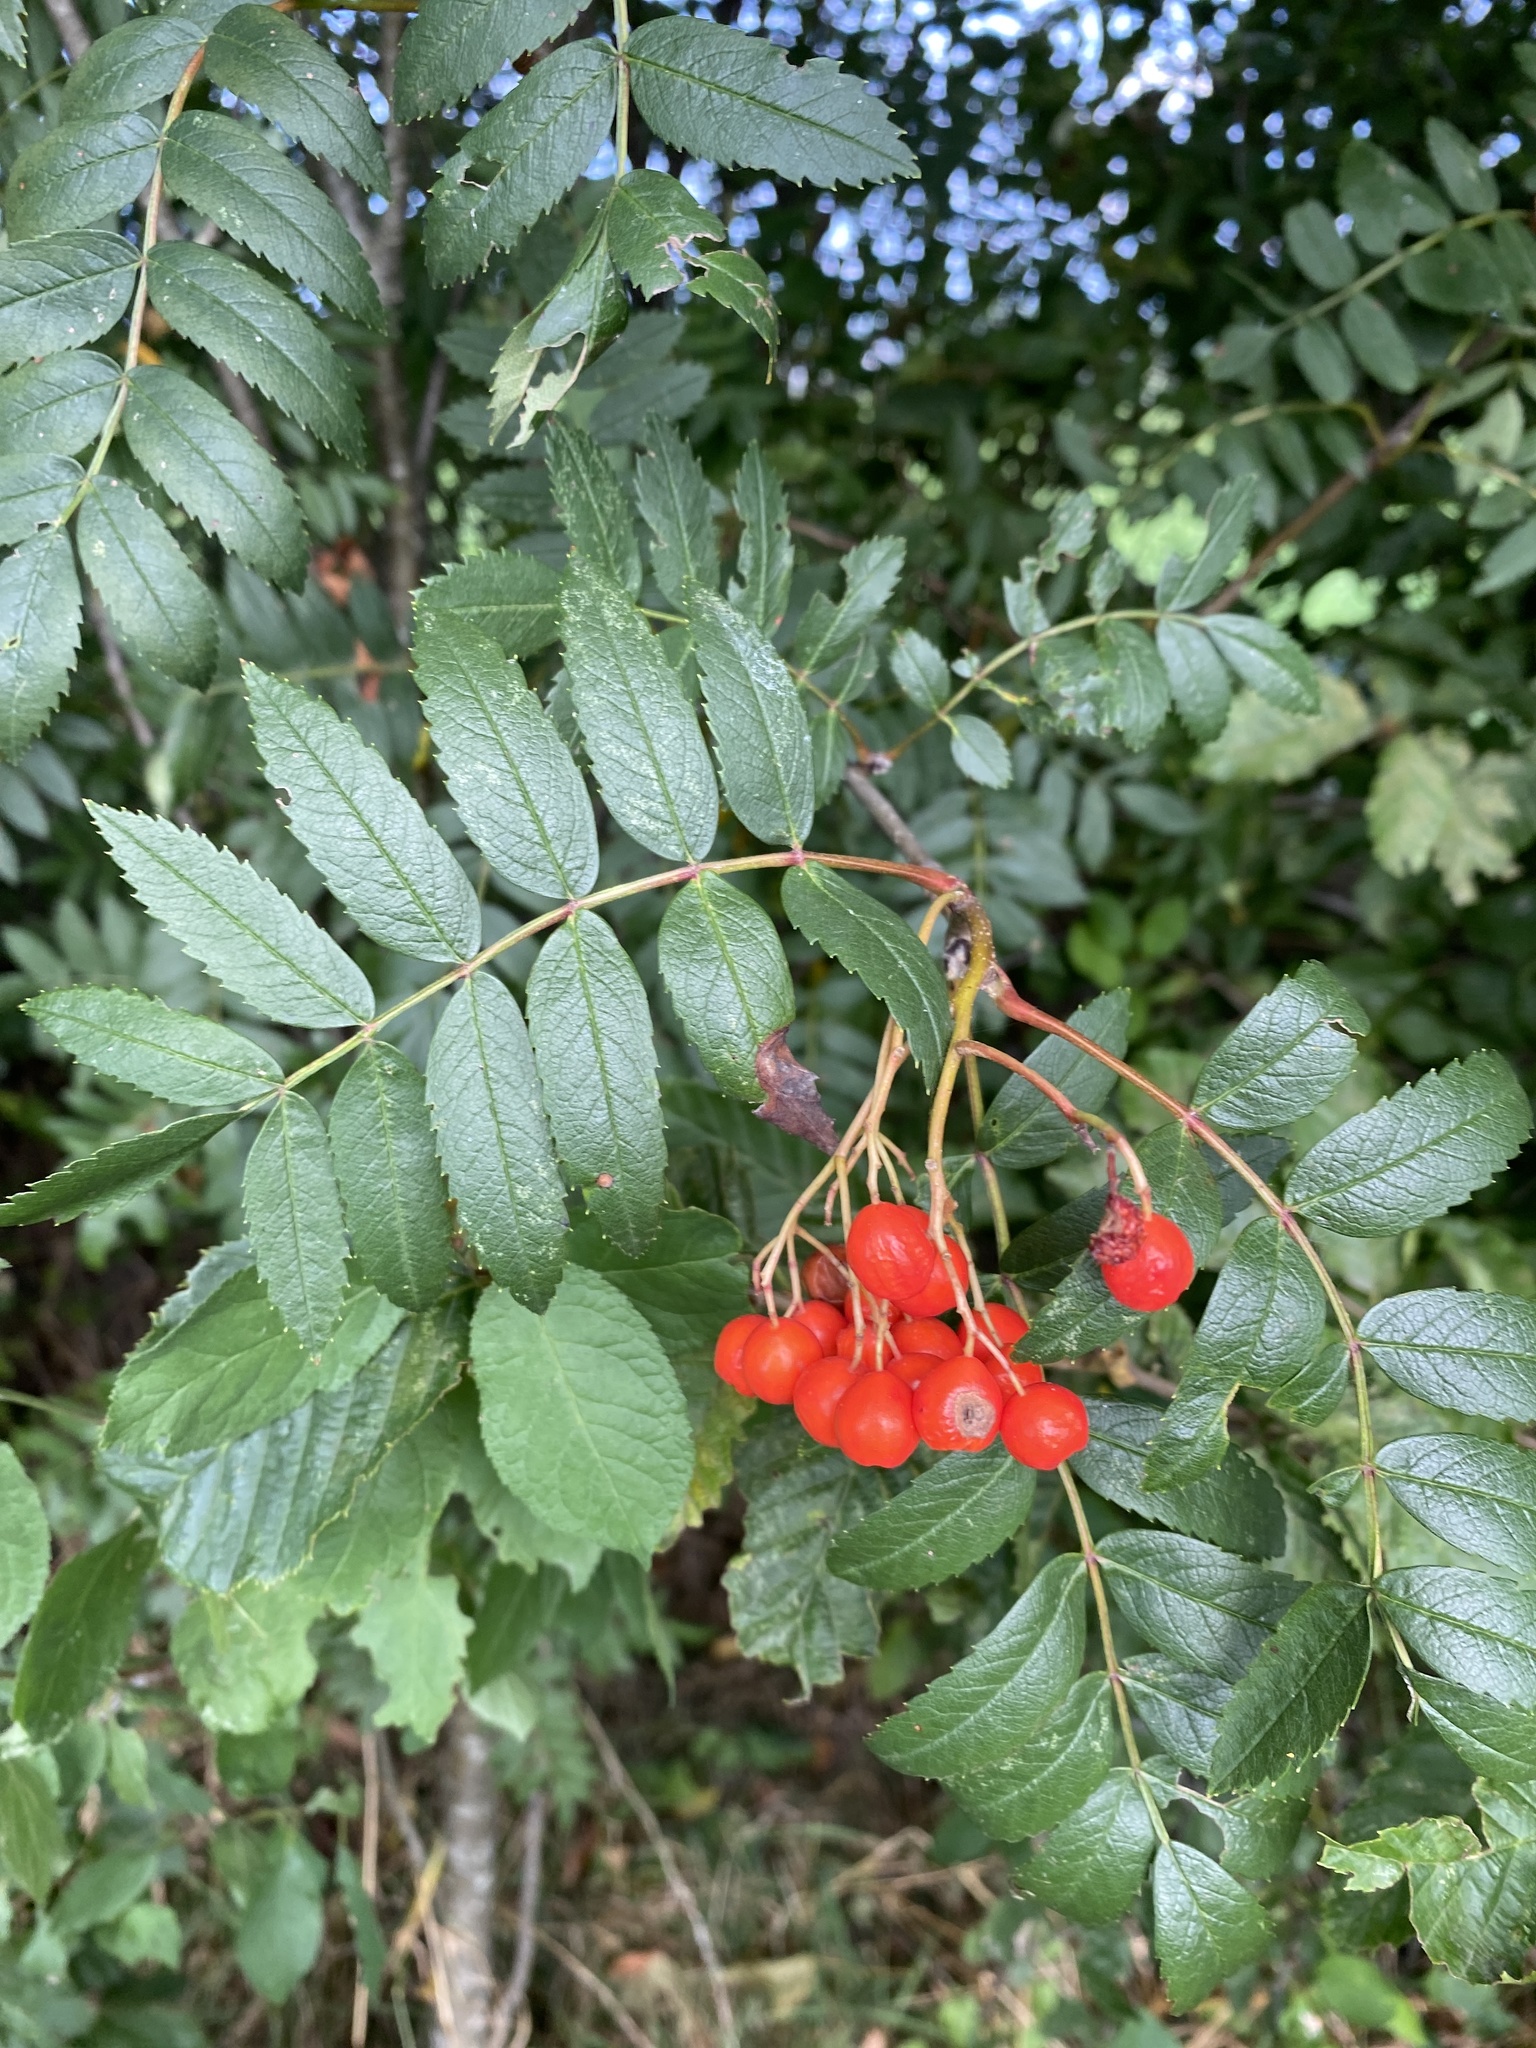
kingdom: Plantae
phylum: Tracheophyta
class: Magnoliopsida
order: Rosales
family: Rosaceae
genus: Sorbus
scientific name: Sorbus aucuparia
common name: Rowan
